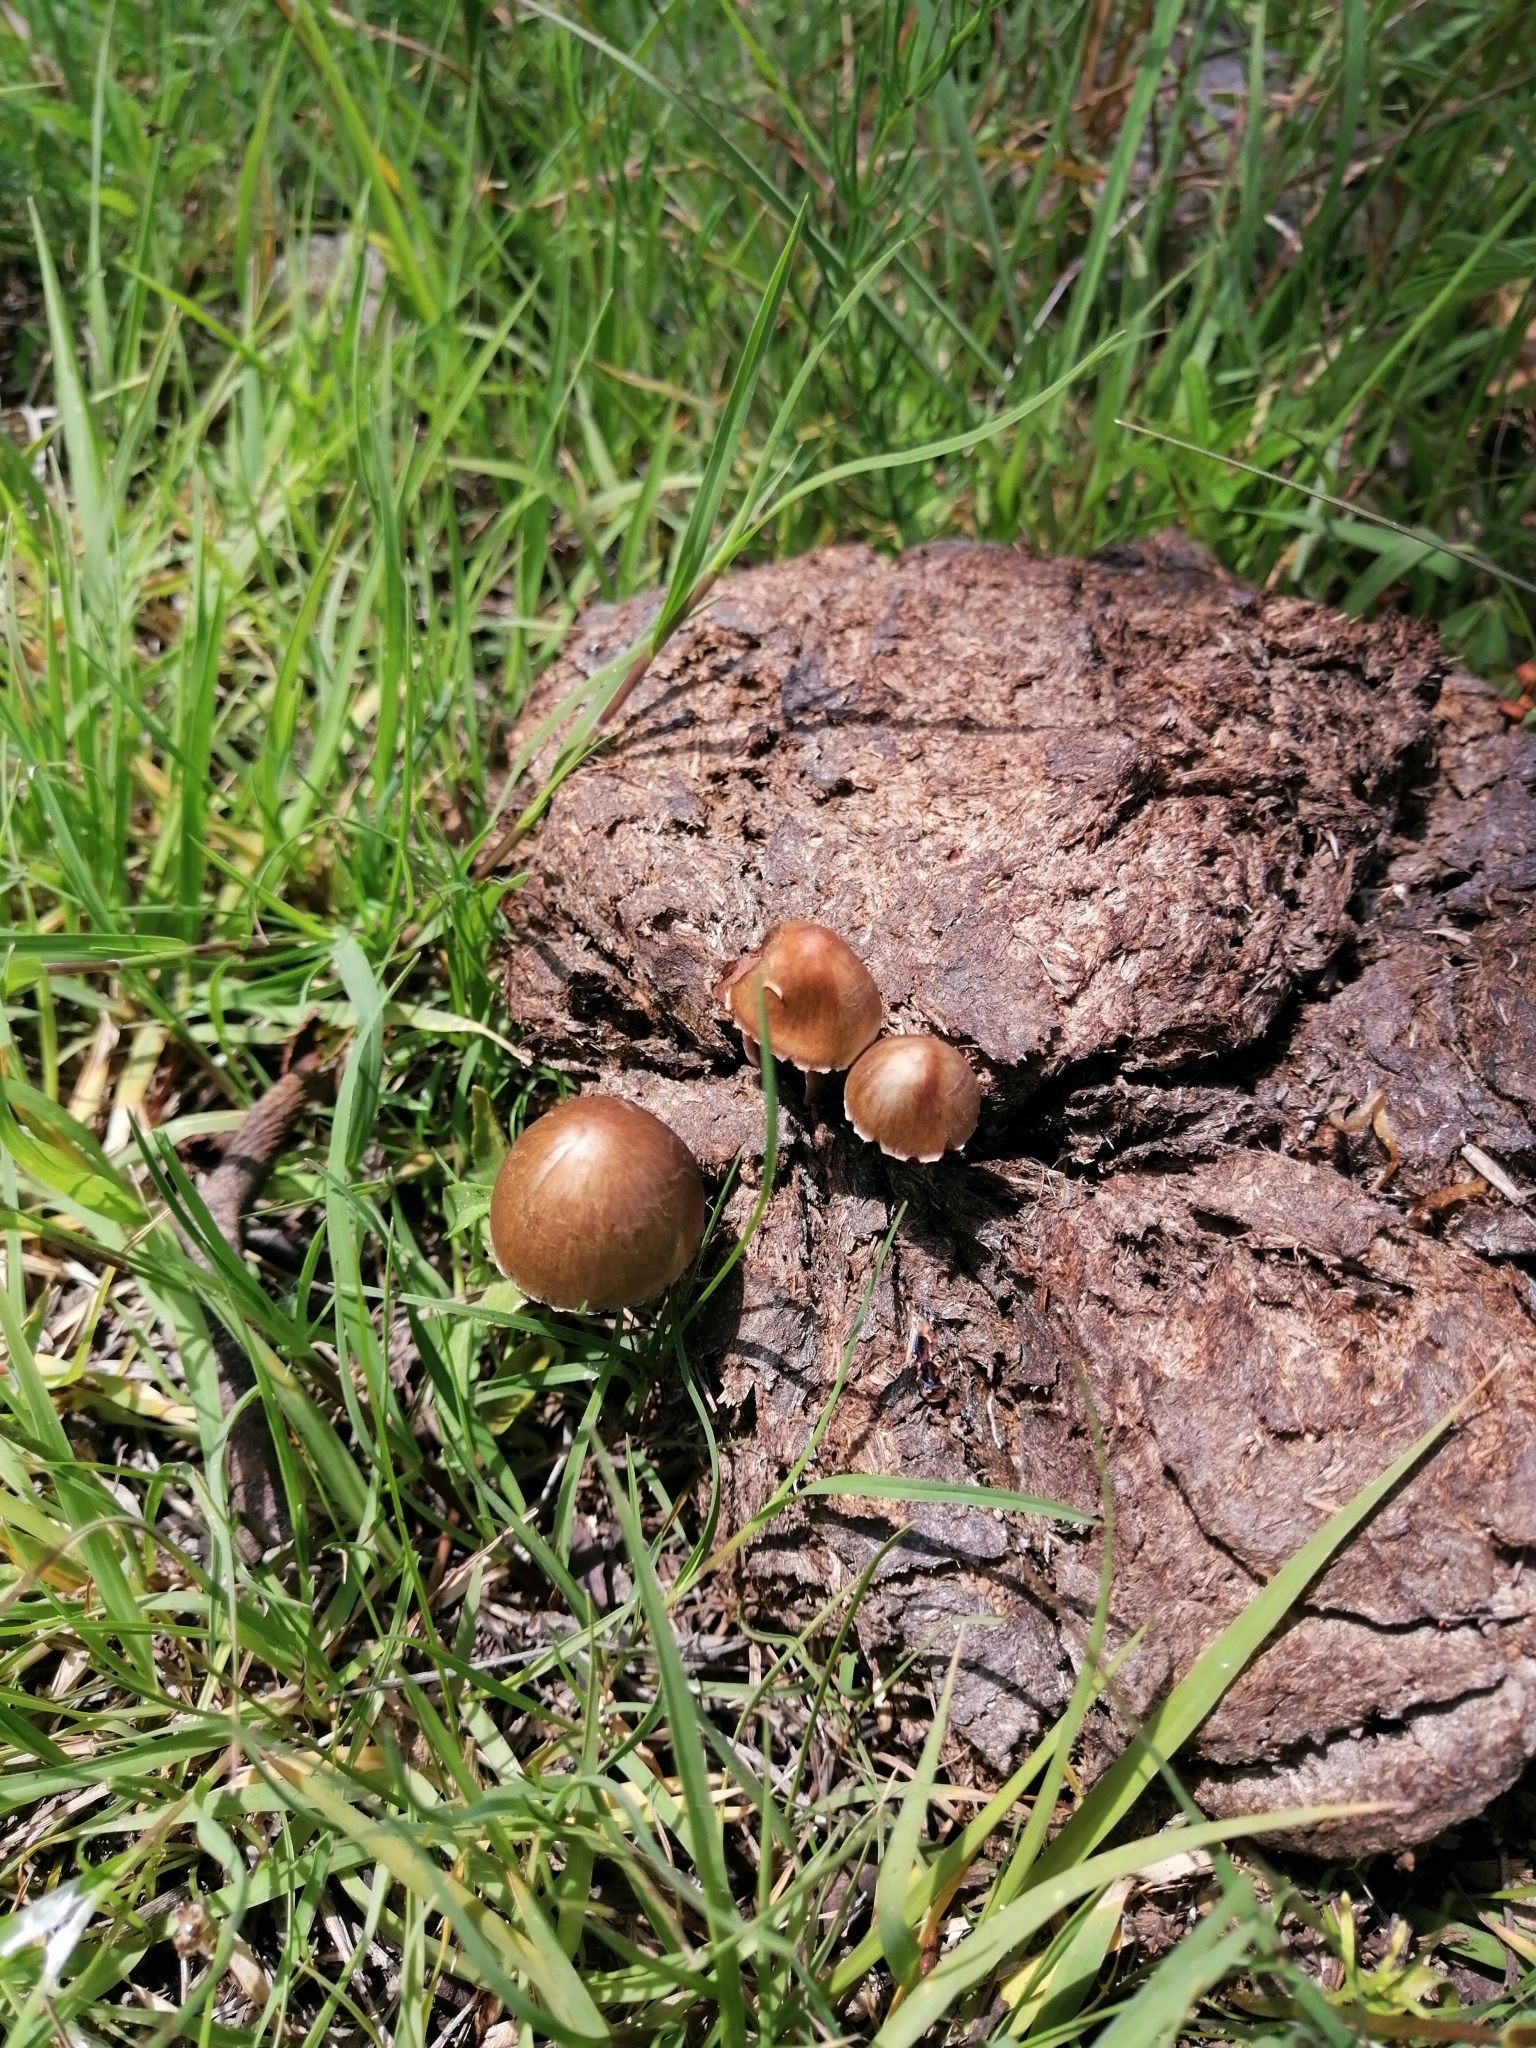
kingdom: Fungi
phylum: Basidiomycota
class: Agaricomycetes
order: Agaricales
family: Bolbitiaceae
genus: Panaeolus
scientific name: Panaeolus papilionaceus
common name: Petticoat mottlegill
